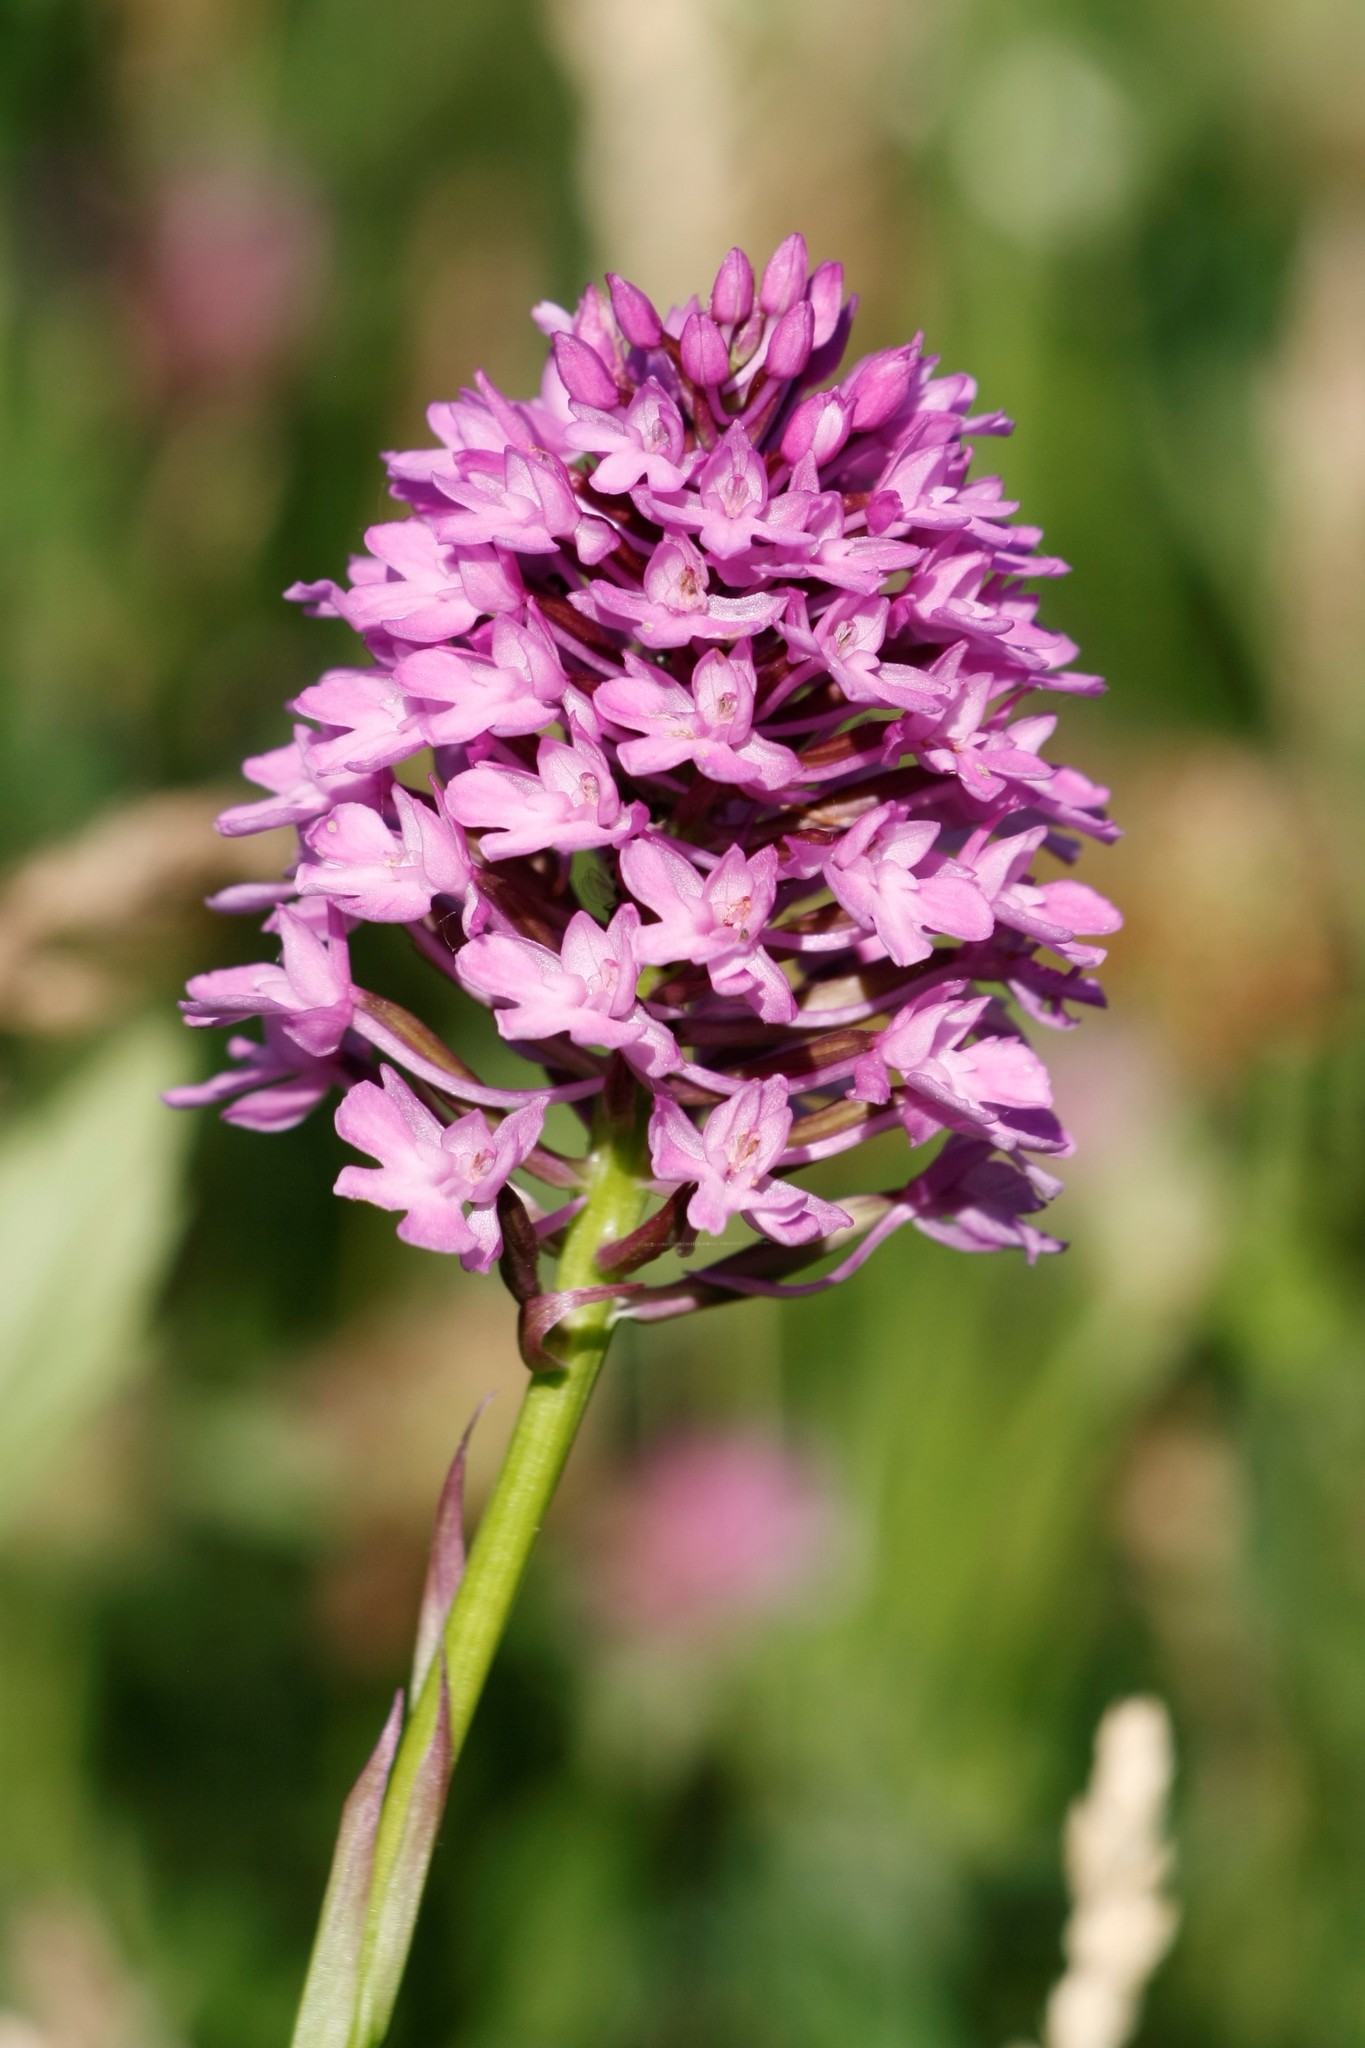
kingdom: Plantae
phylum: Tracheophyta
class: Liliopsida
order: Asparagales
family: Orchidaceae
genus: Anacamptis
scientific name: Anacamptis pyramidalis
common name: Pyramidal orchid
